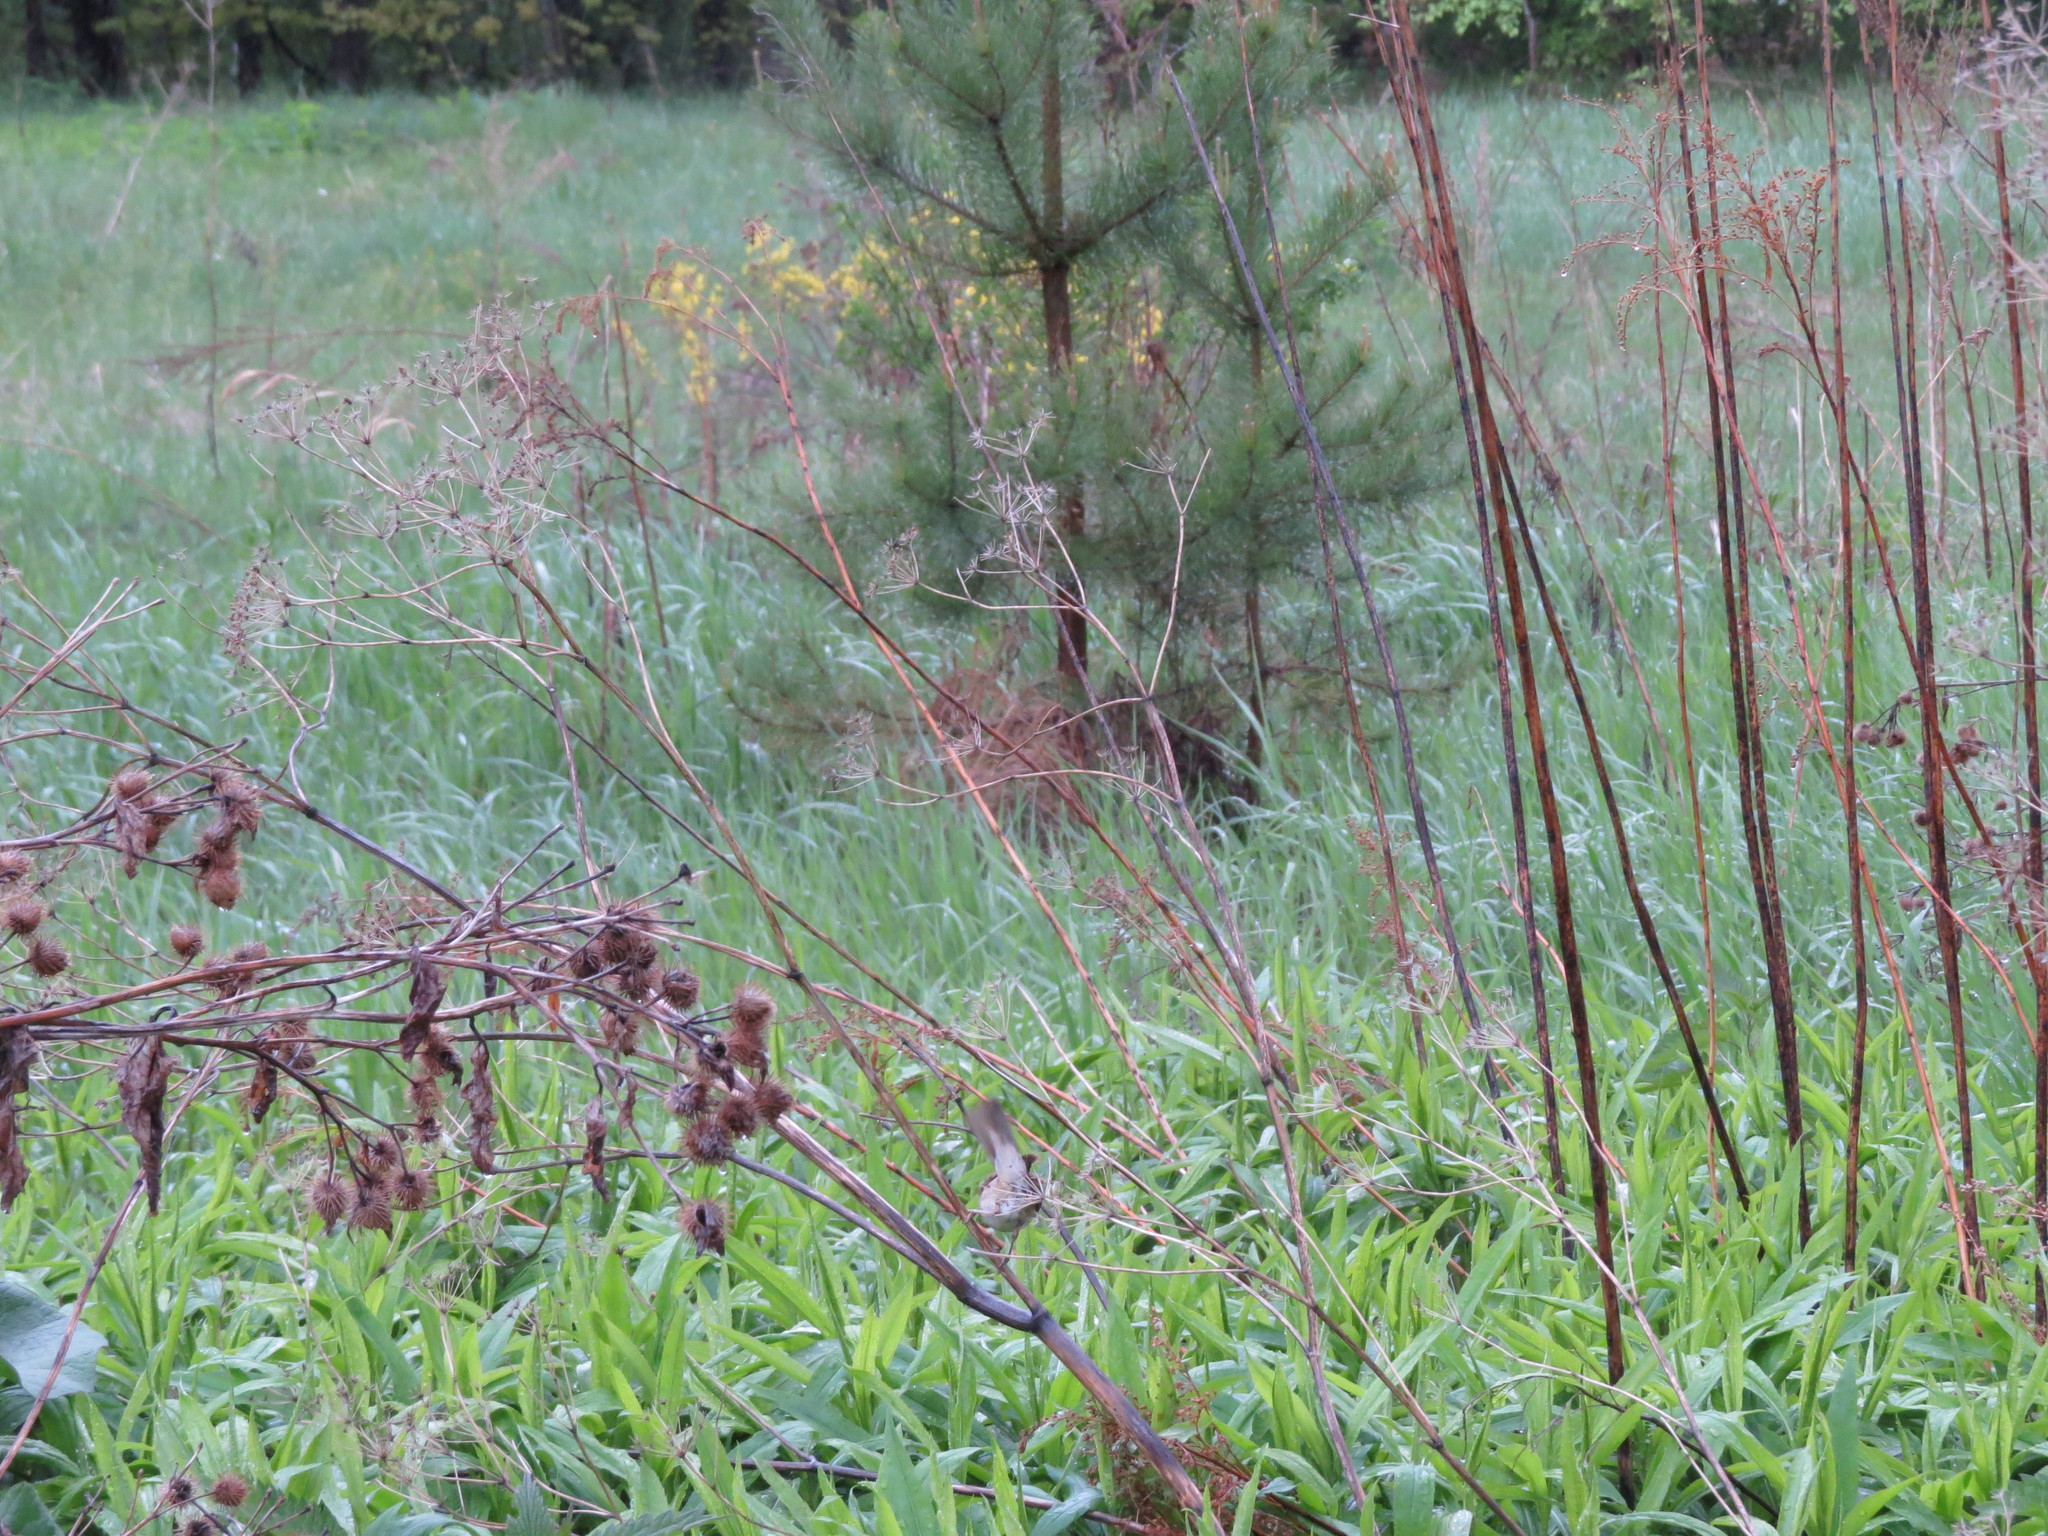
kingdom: Animalia
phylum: Chordata
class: Aves
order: Passeriformes
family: Acrocephalidae
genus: Acrocephalus
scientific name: Acrocephalus dumetorum
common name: Blyth's reed warbler
